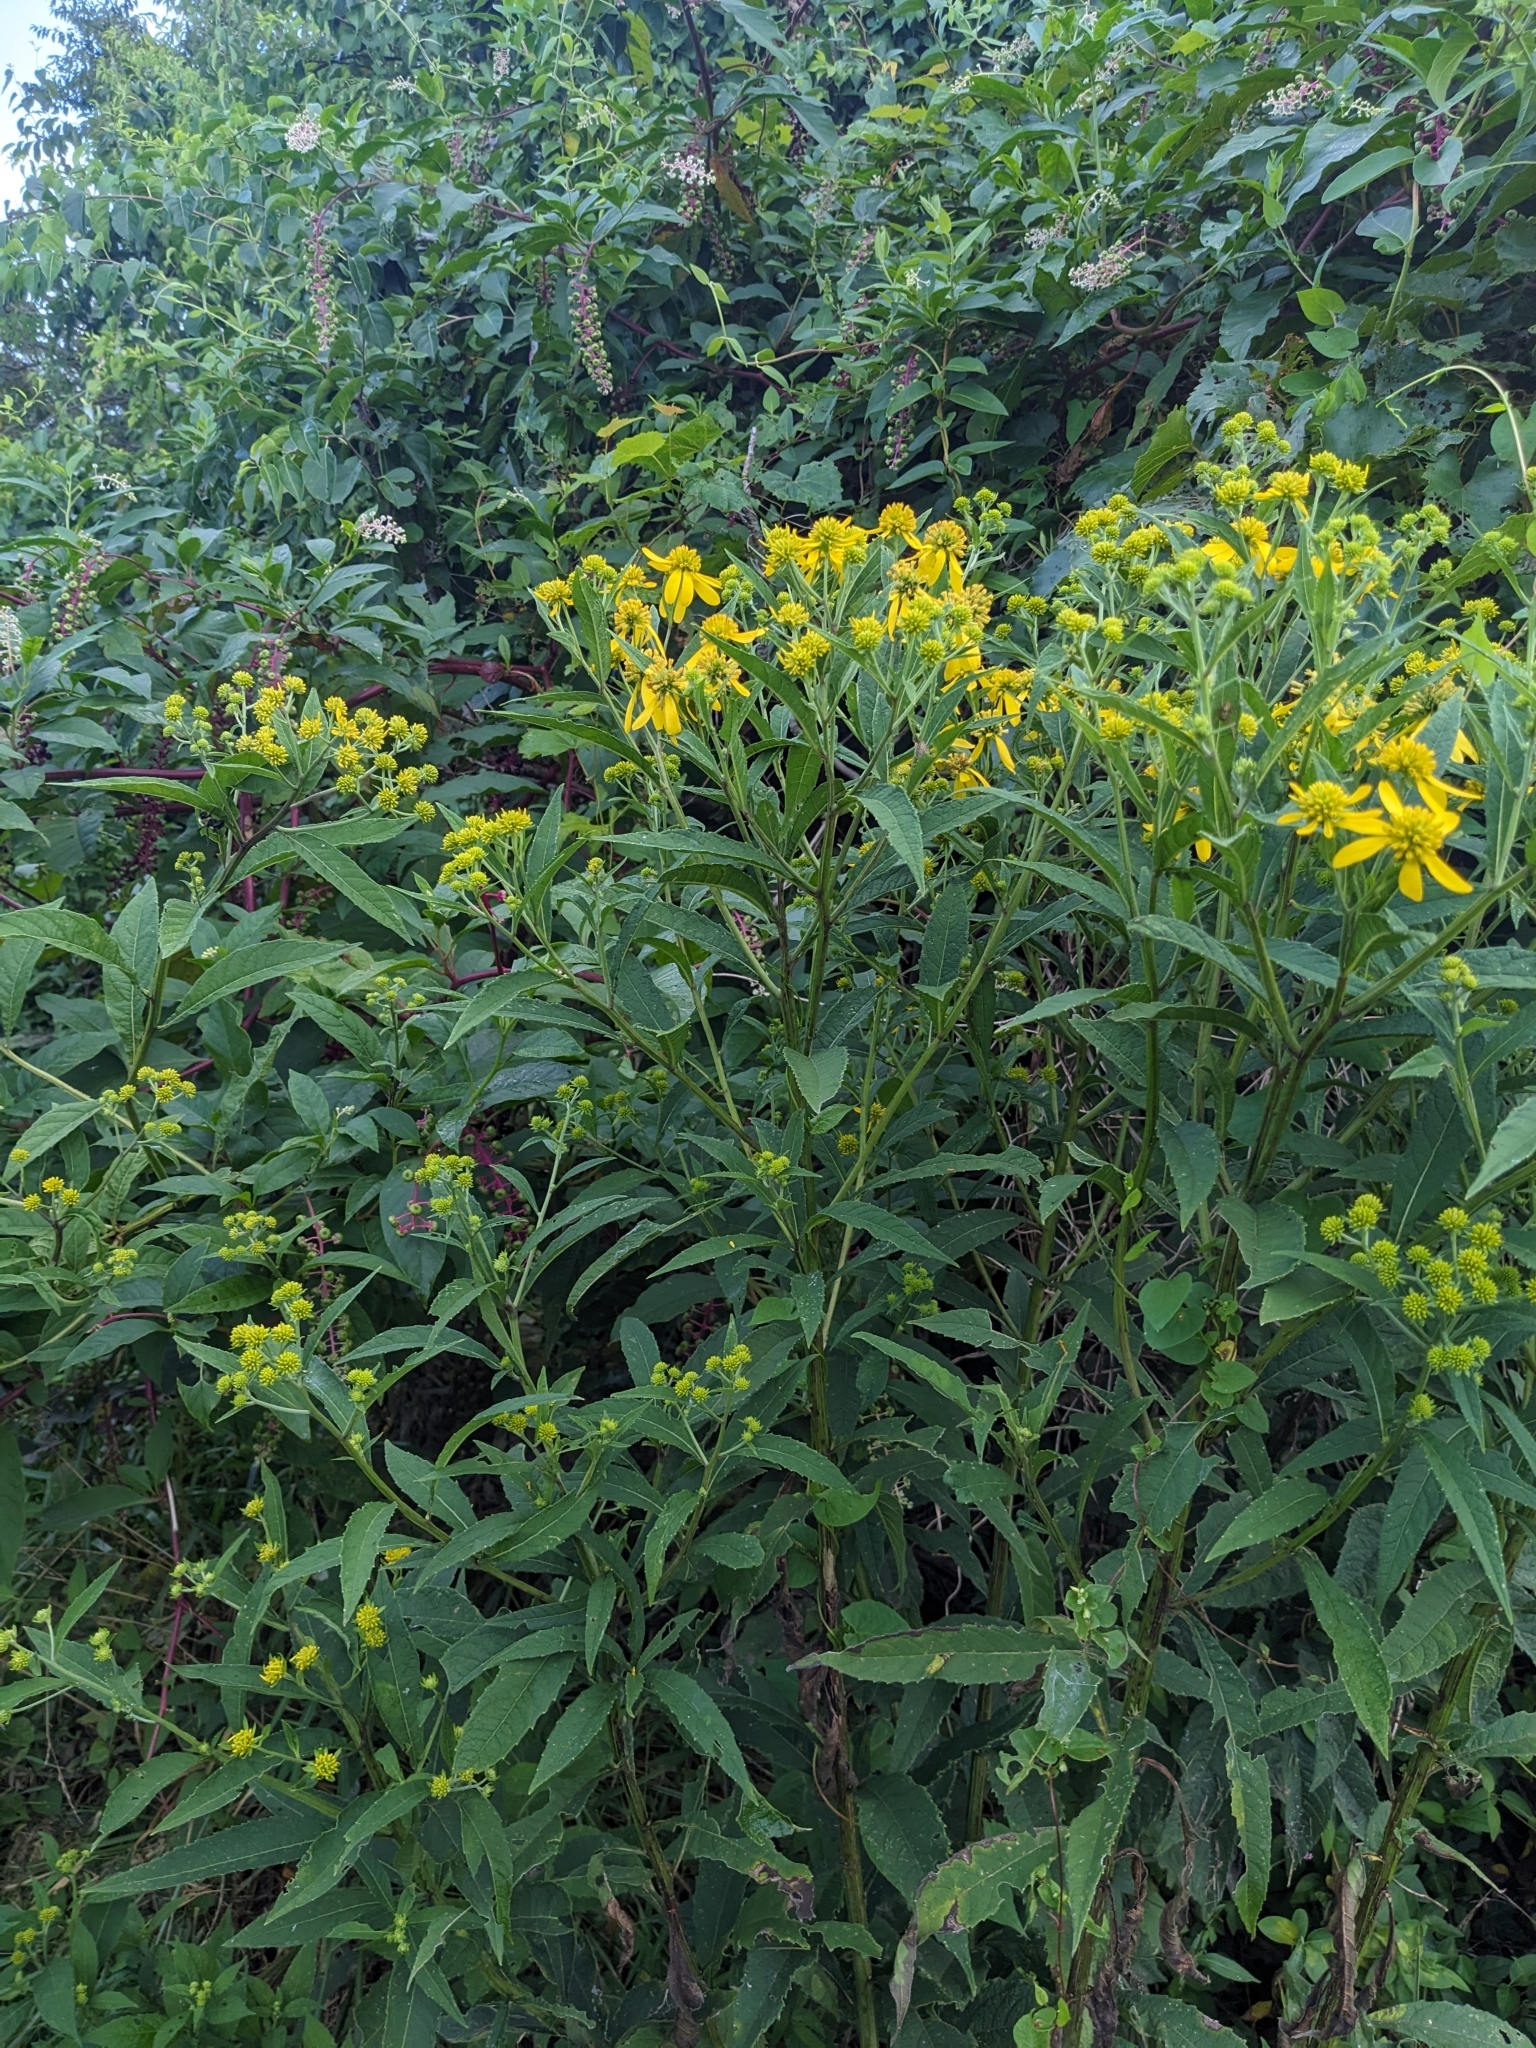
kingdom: Plantae
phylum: Tracheophyta
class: Magnoliopsida
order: Asterales
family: Asteraceae
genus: Verbesina
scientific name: Verbesina alternifolia
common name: Wingstem
